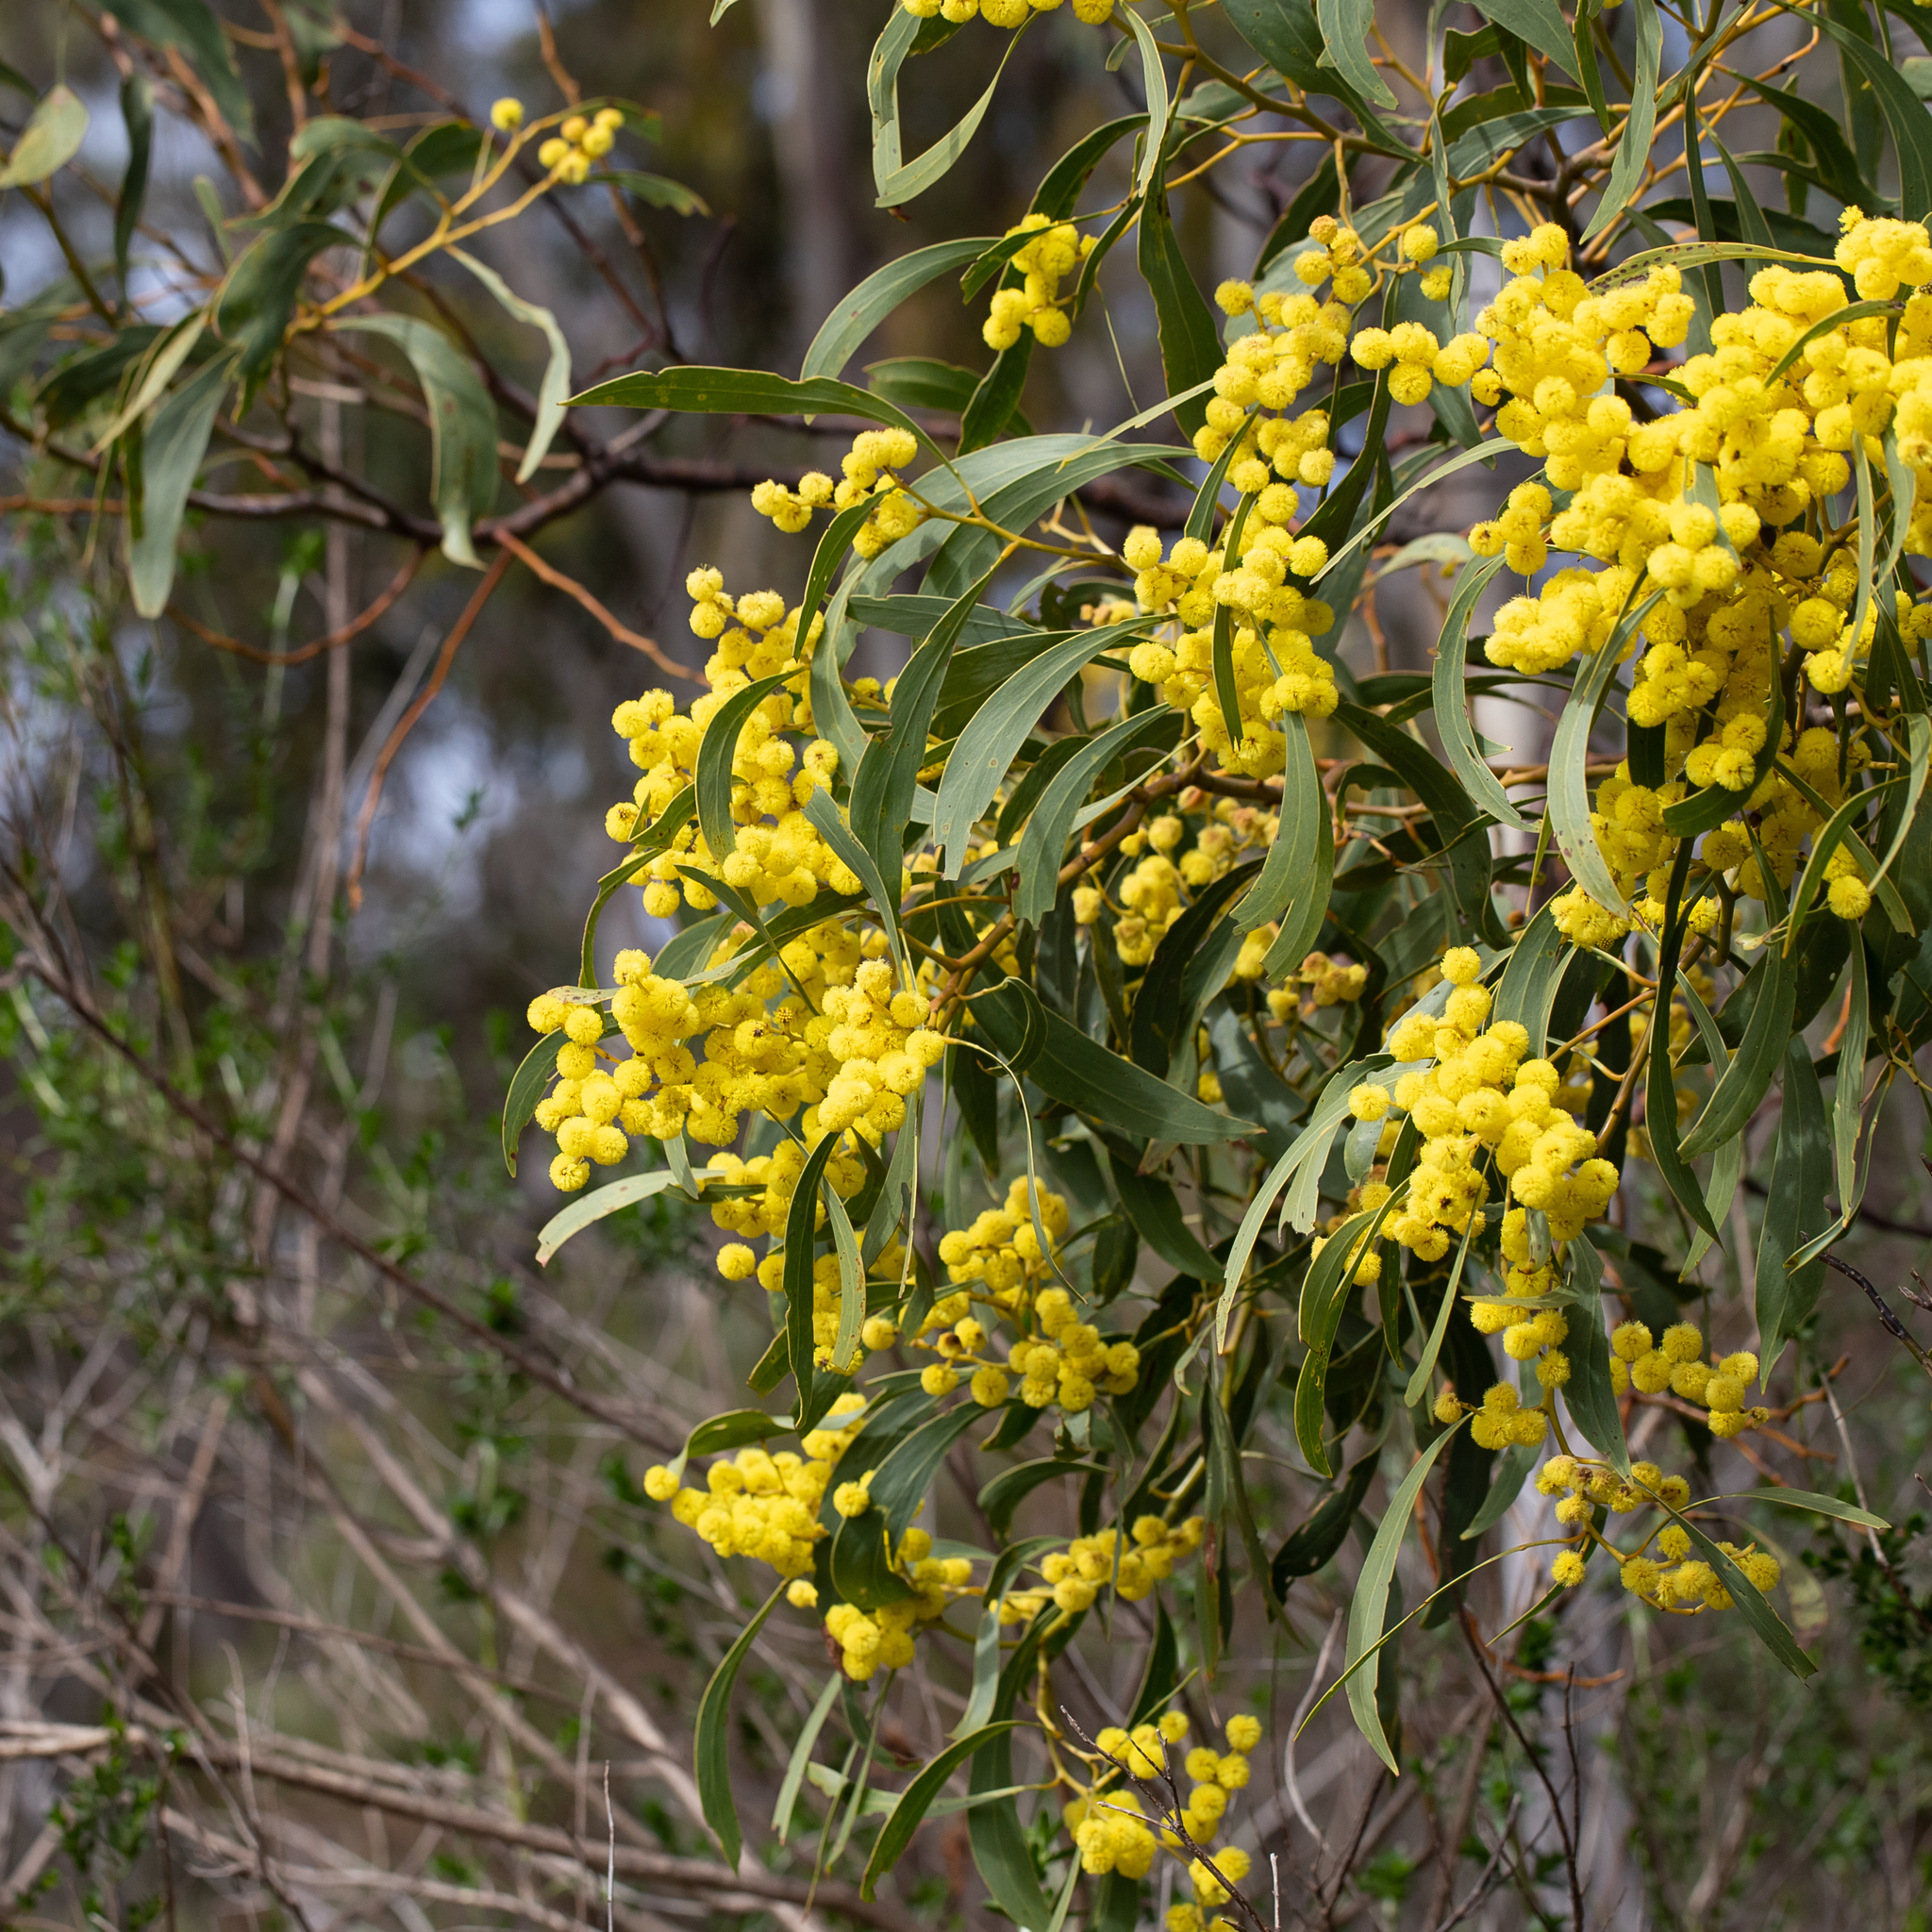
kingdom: Plantae
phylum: Tracheophyta
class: Magnoliopsida
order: Fabales
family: Fabaceae
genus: Acacia
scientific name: Acacia pycnantha
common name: Golden wattle
